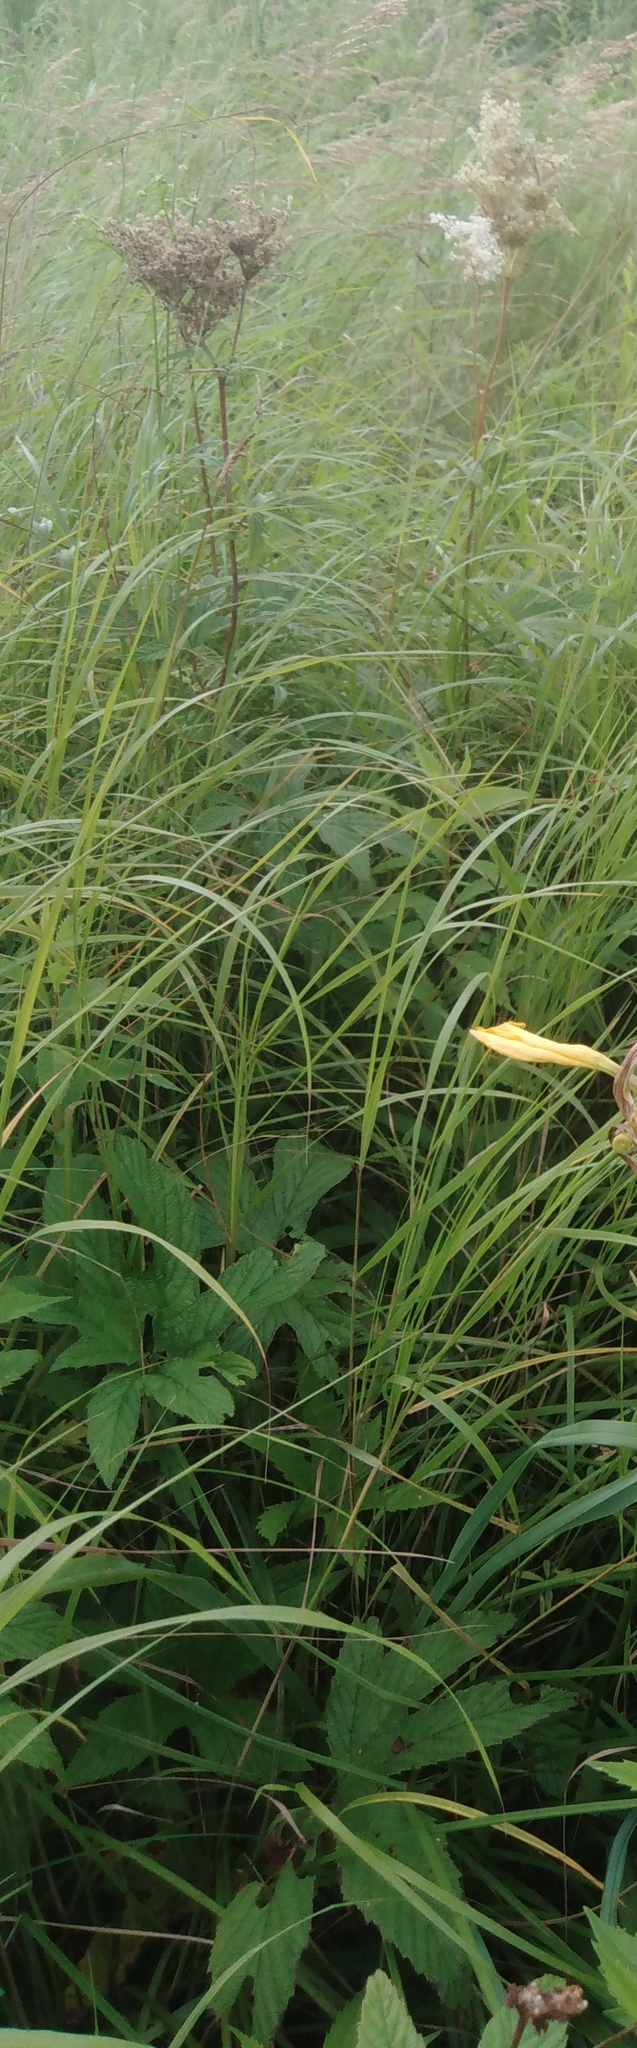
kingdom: Plantae
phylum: Tracheophyta
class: Magnoliopsida
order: Rosales
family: Rosaceae
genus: Filipendula
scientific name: Filipendula digitata
